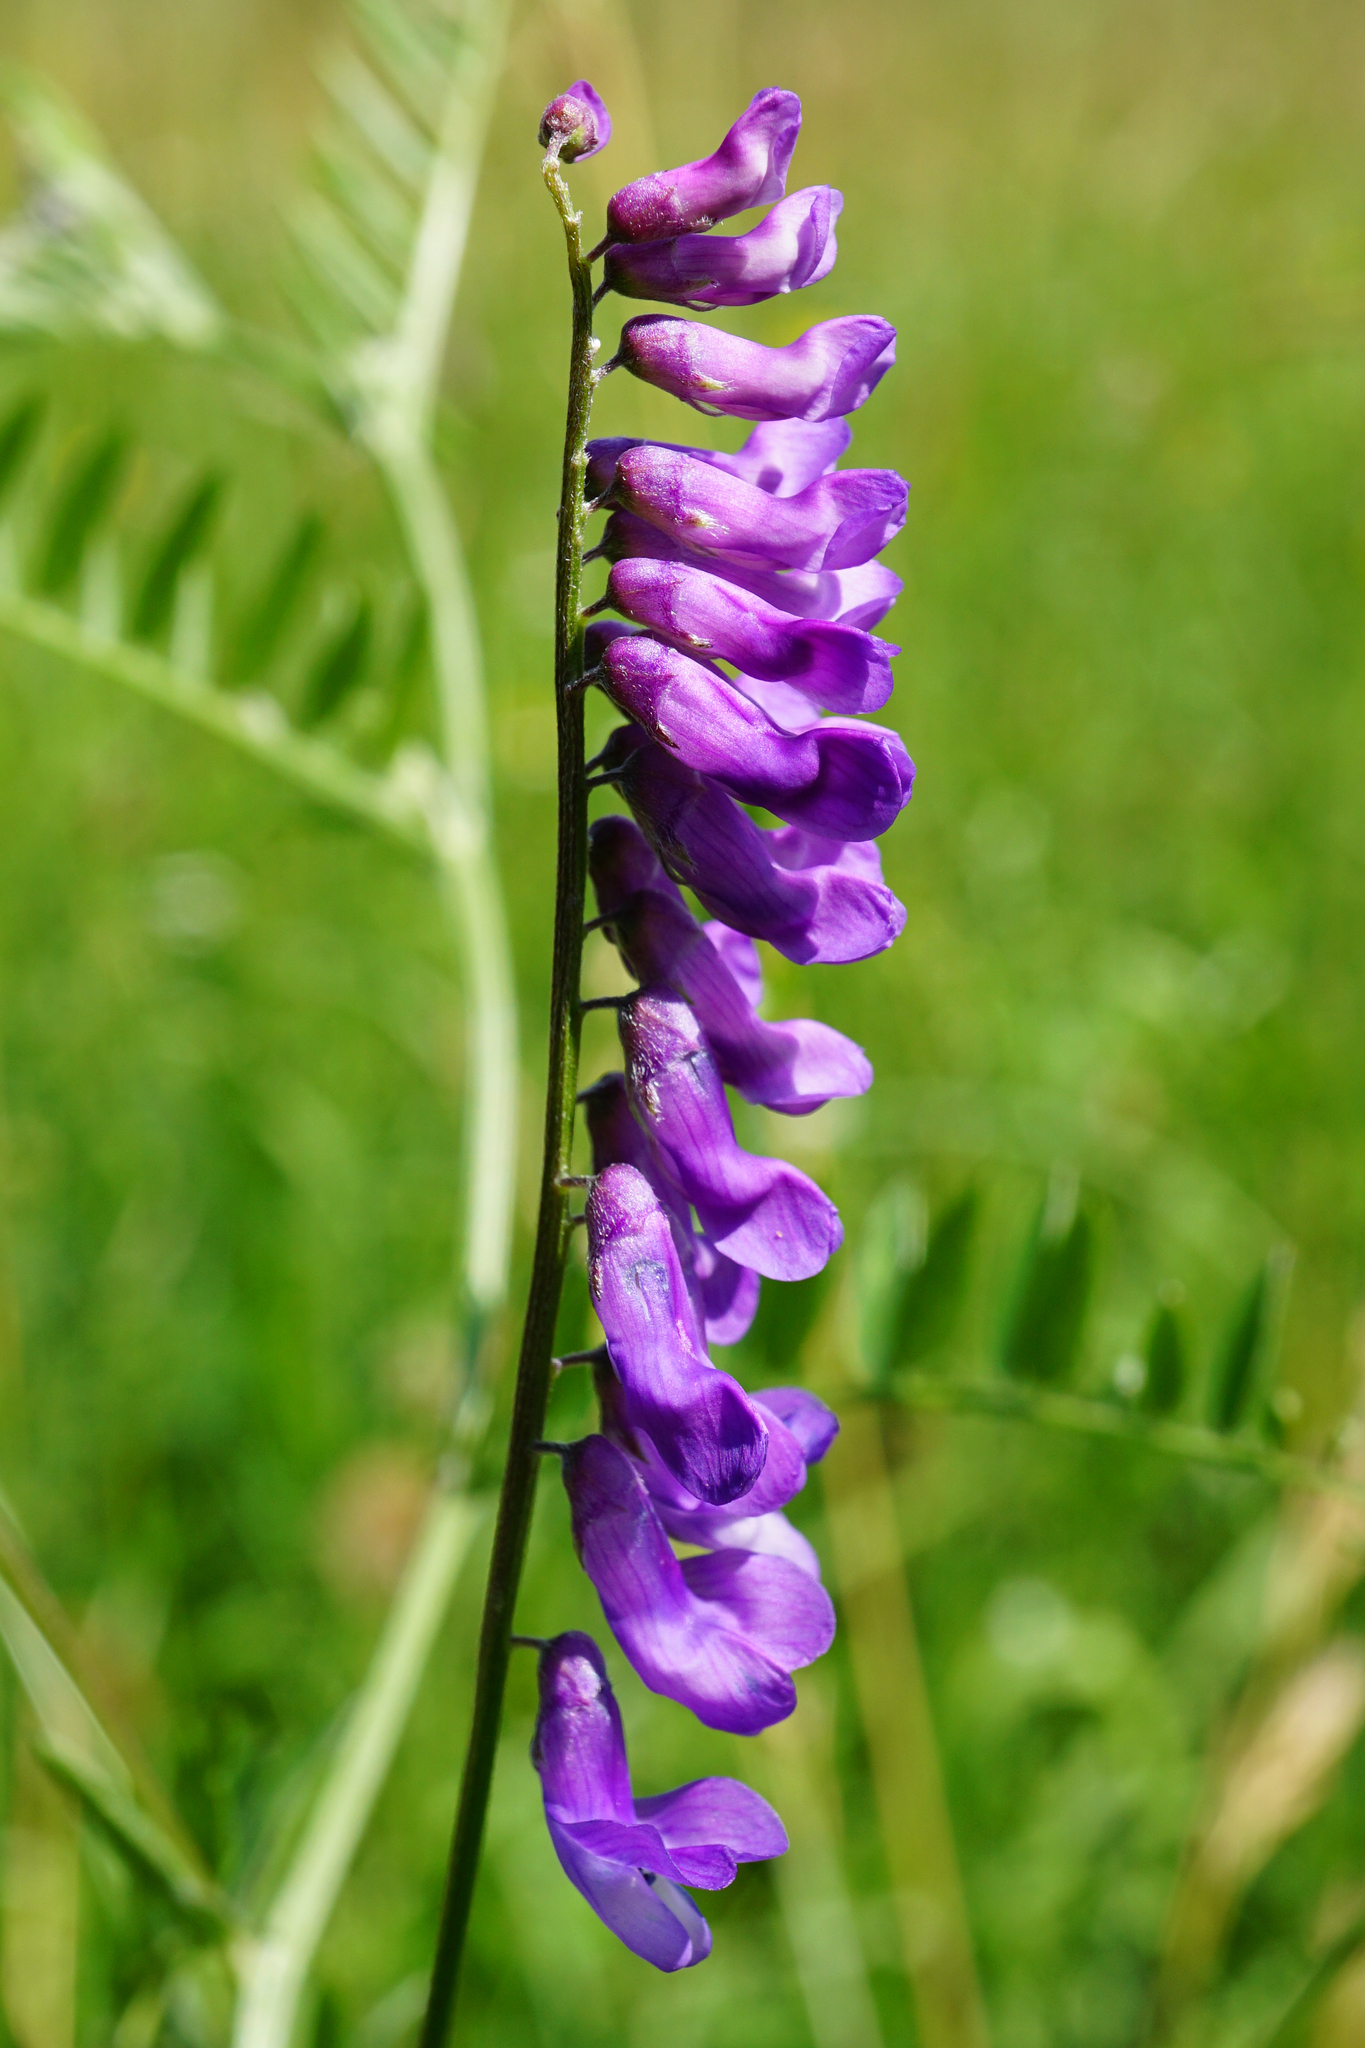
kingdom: Plantae
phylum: Tracheophyta
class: Magnoliopsida
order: Fabales
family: Fabaceae
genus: Vicia
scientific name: Vicia cracca
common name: Bird vetch
